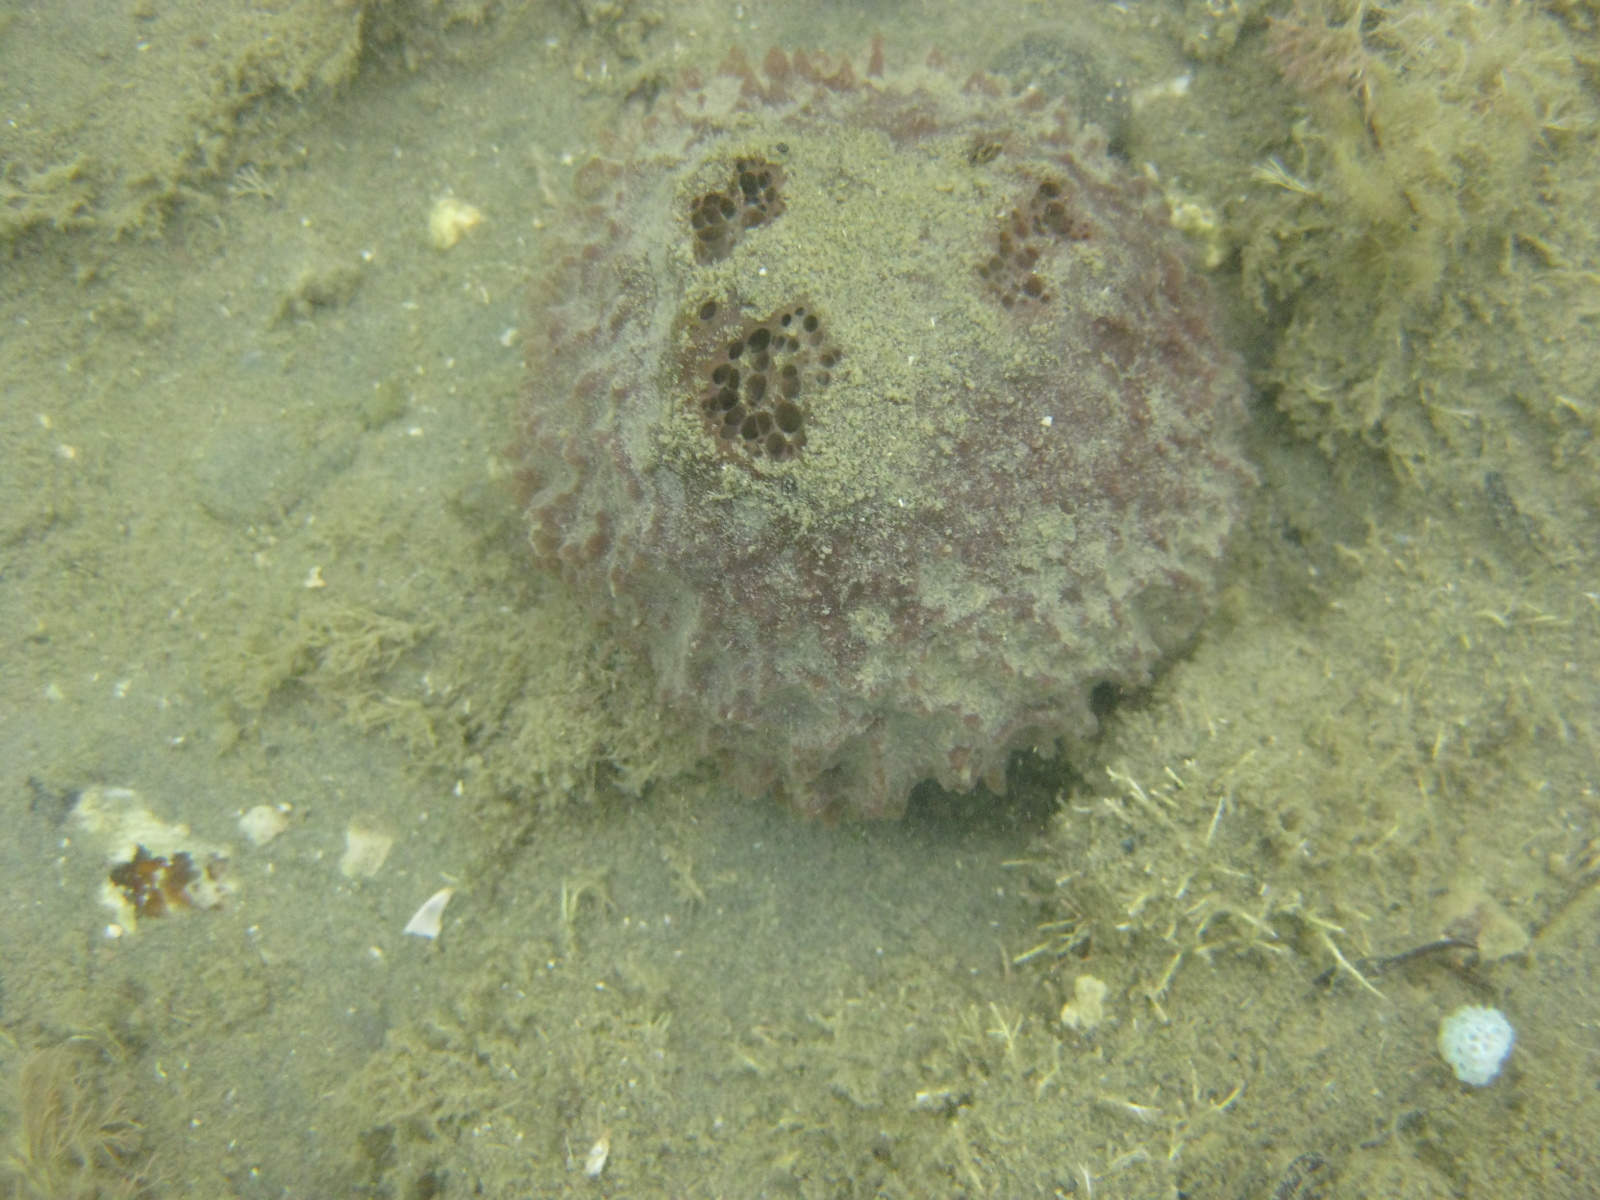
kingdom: Animalia
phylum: Porifera
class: Demospongiae
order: Suberitida
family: Suberitidae
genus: Aaptos
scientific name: Aaptos tenta
